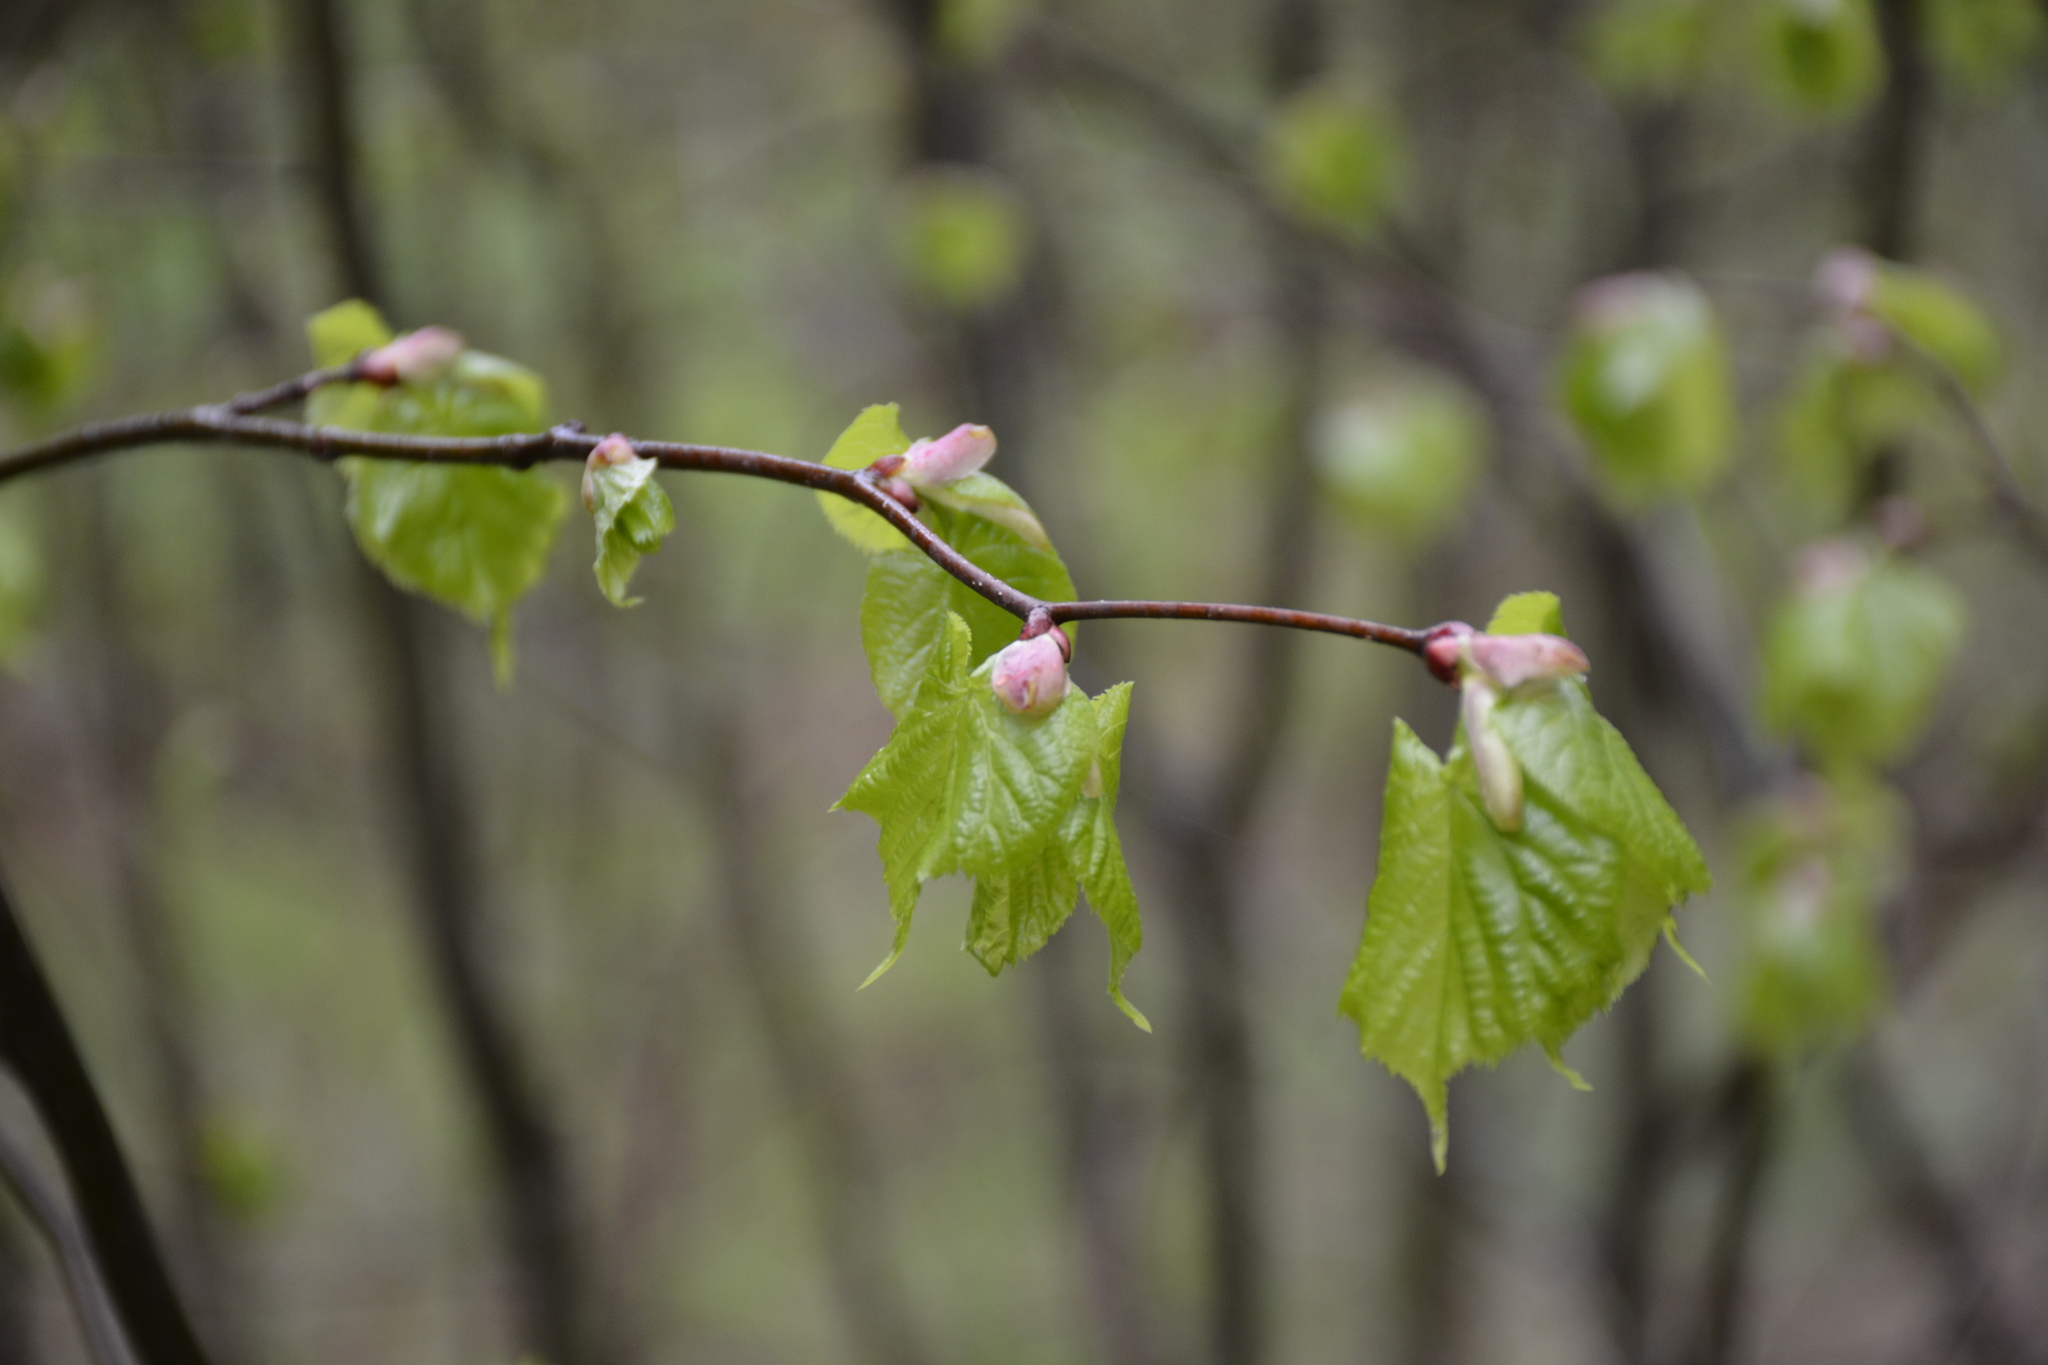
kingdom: Plantae
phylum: Tracheophyta
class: Magnoliopsida
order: Malvales
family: Malvaceae
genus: Tilia
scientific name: Tilia cordata
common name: Small-leaved lime
